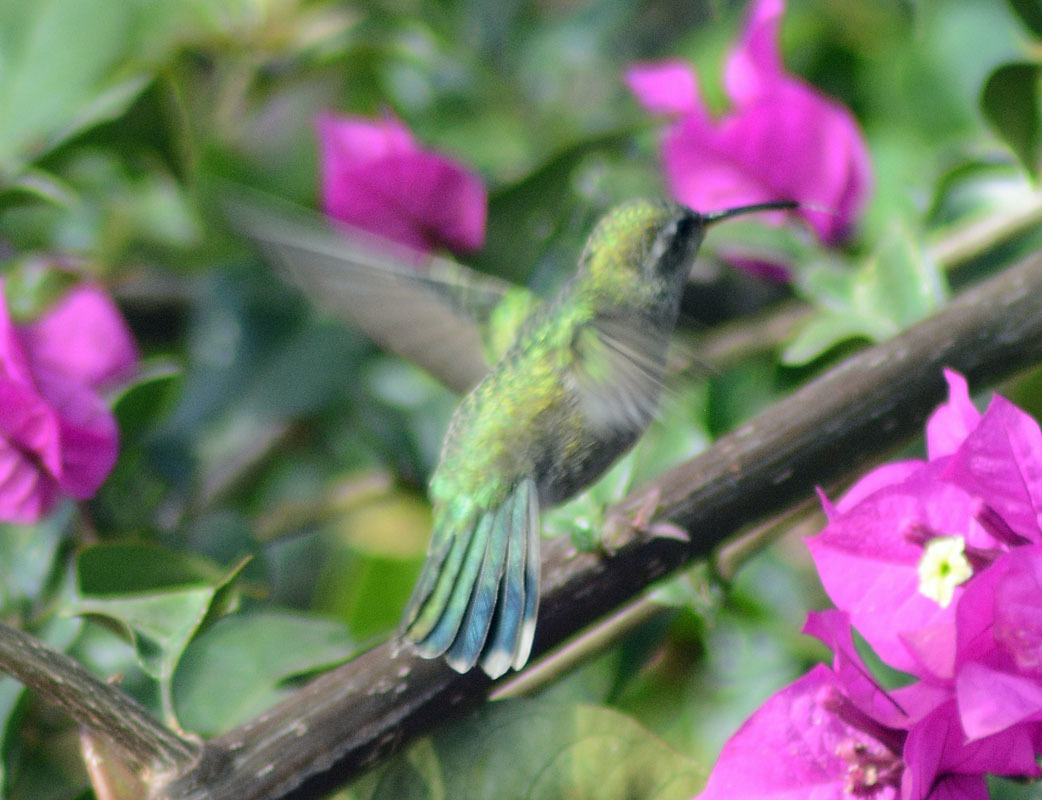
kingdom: Animalia
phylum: Chordata
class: Aves
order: Apodiformes
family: Trochilidae
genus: Cynanthus
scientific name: Cynanthus latirostris
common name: Broad-billed hummingbird
